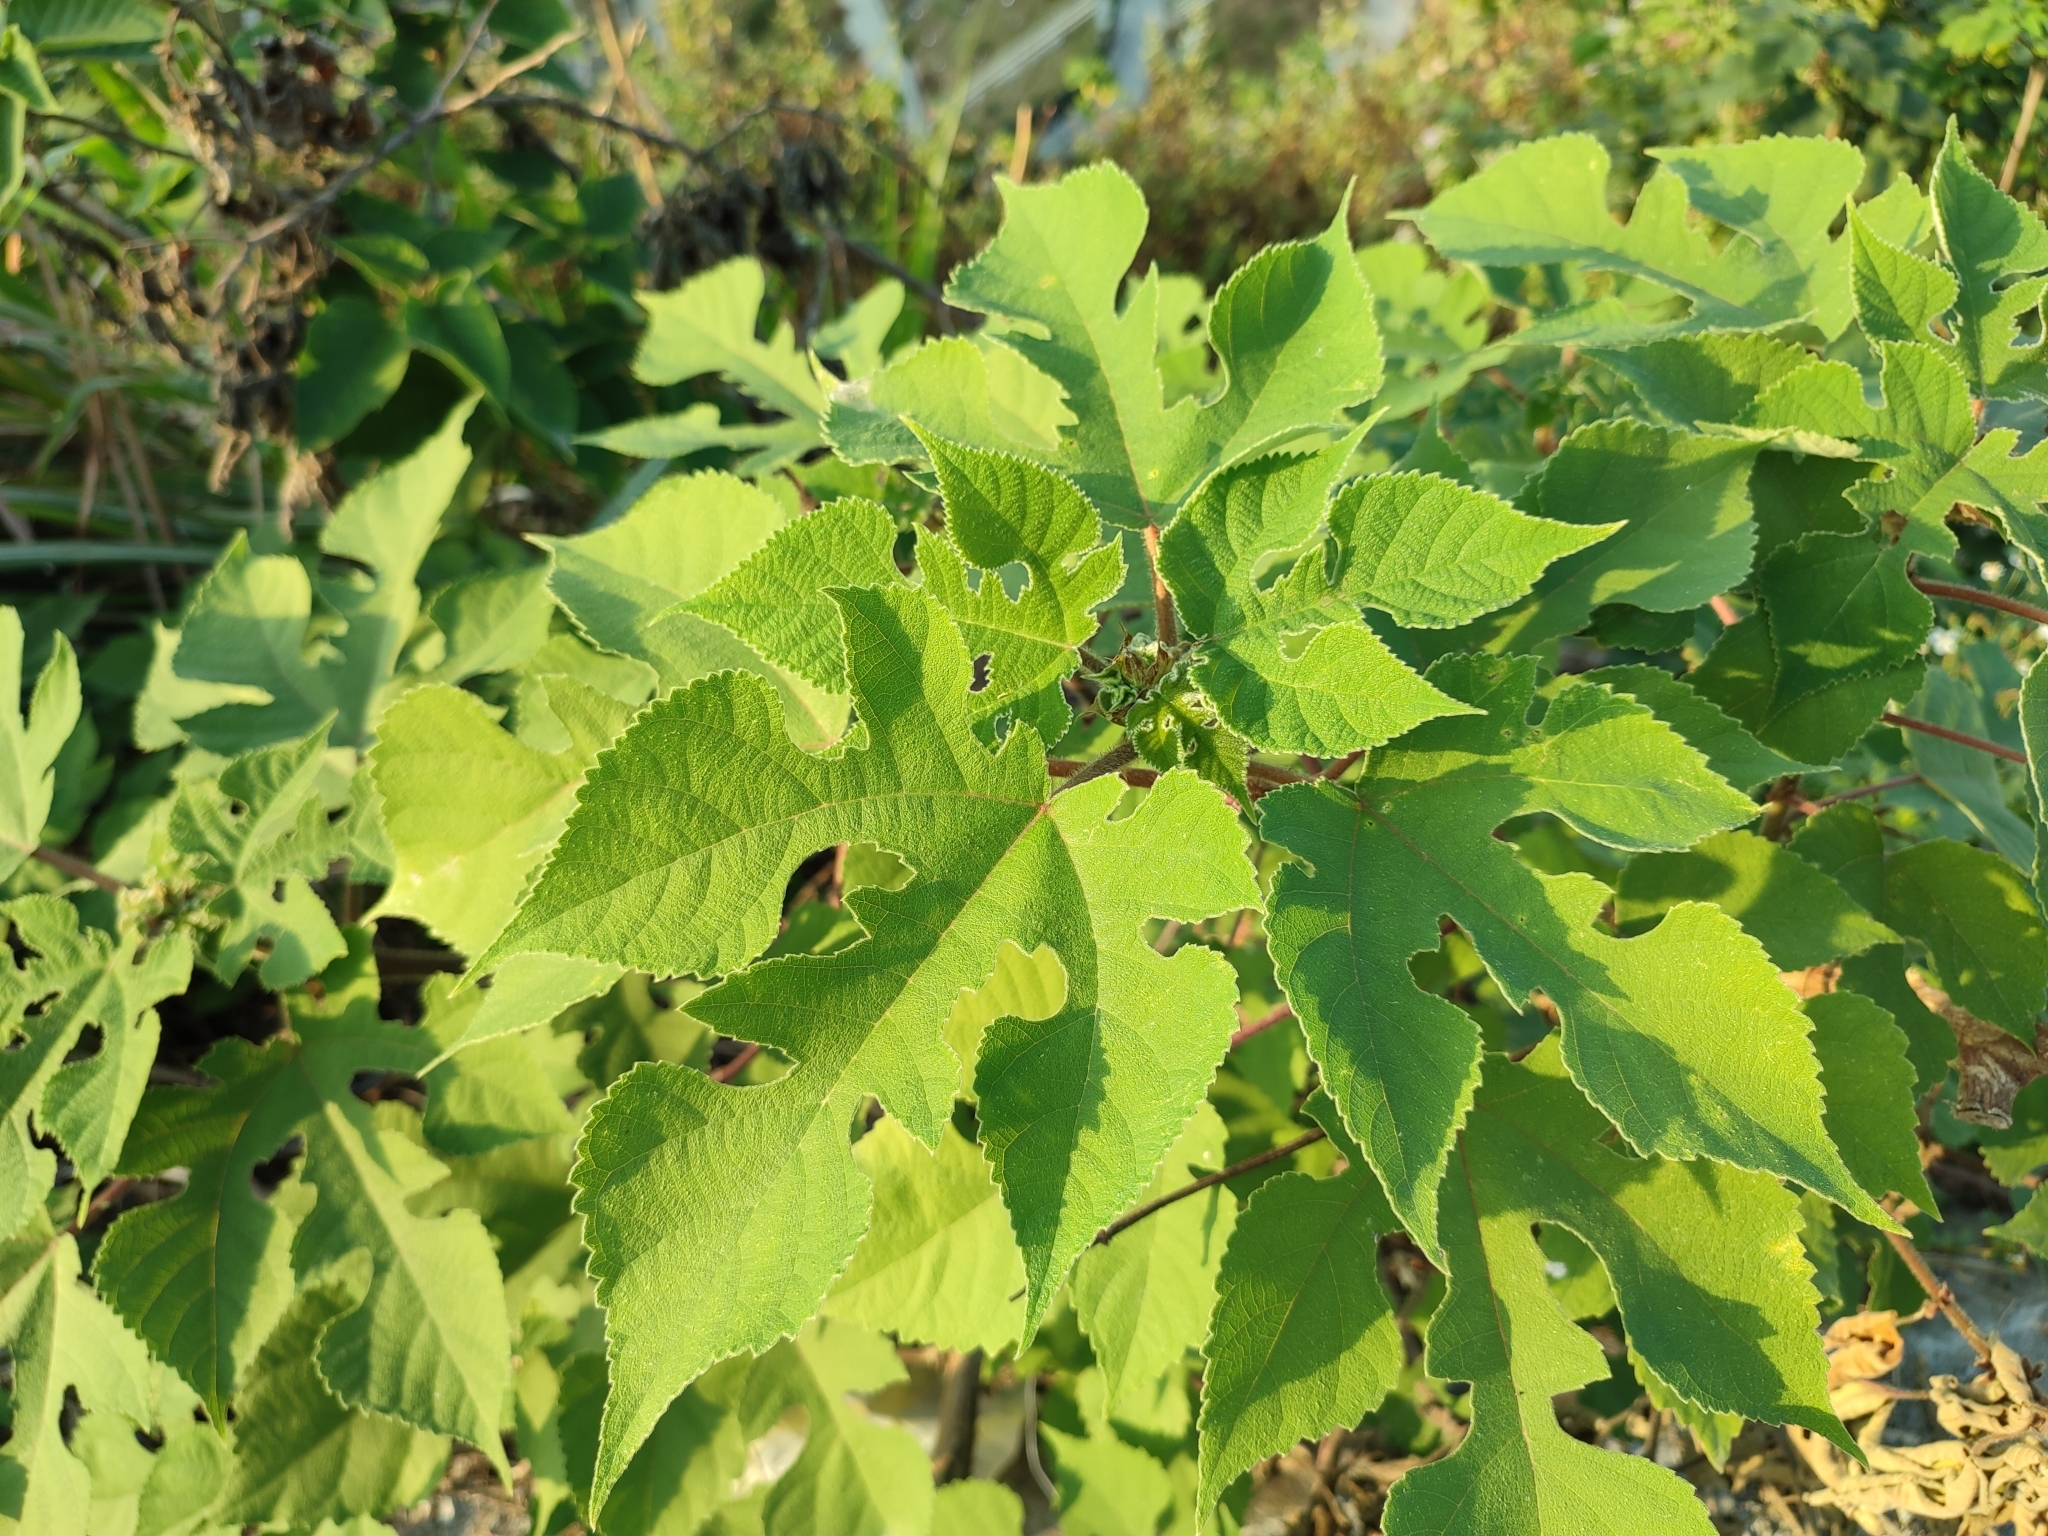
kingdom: Plantae
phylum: Tracheophyta
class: Magnoliopsida
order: Rosales
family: Moraceae
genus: Broussonetia
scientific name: Broussonetia papyrifera
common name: Paper mulberry
